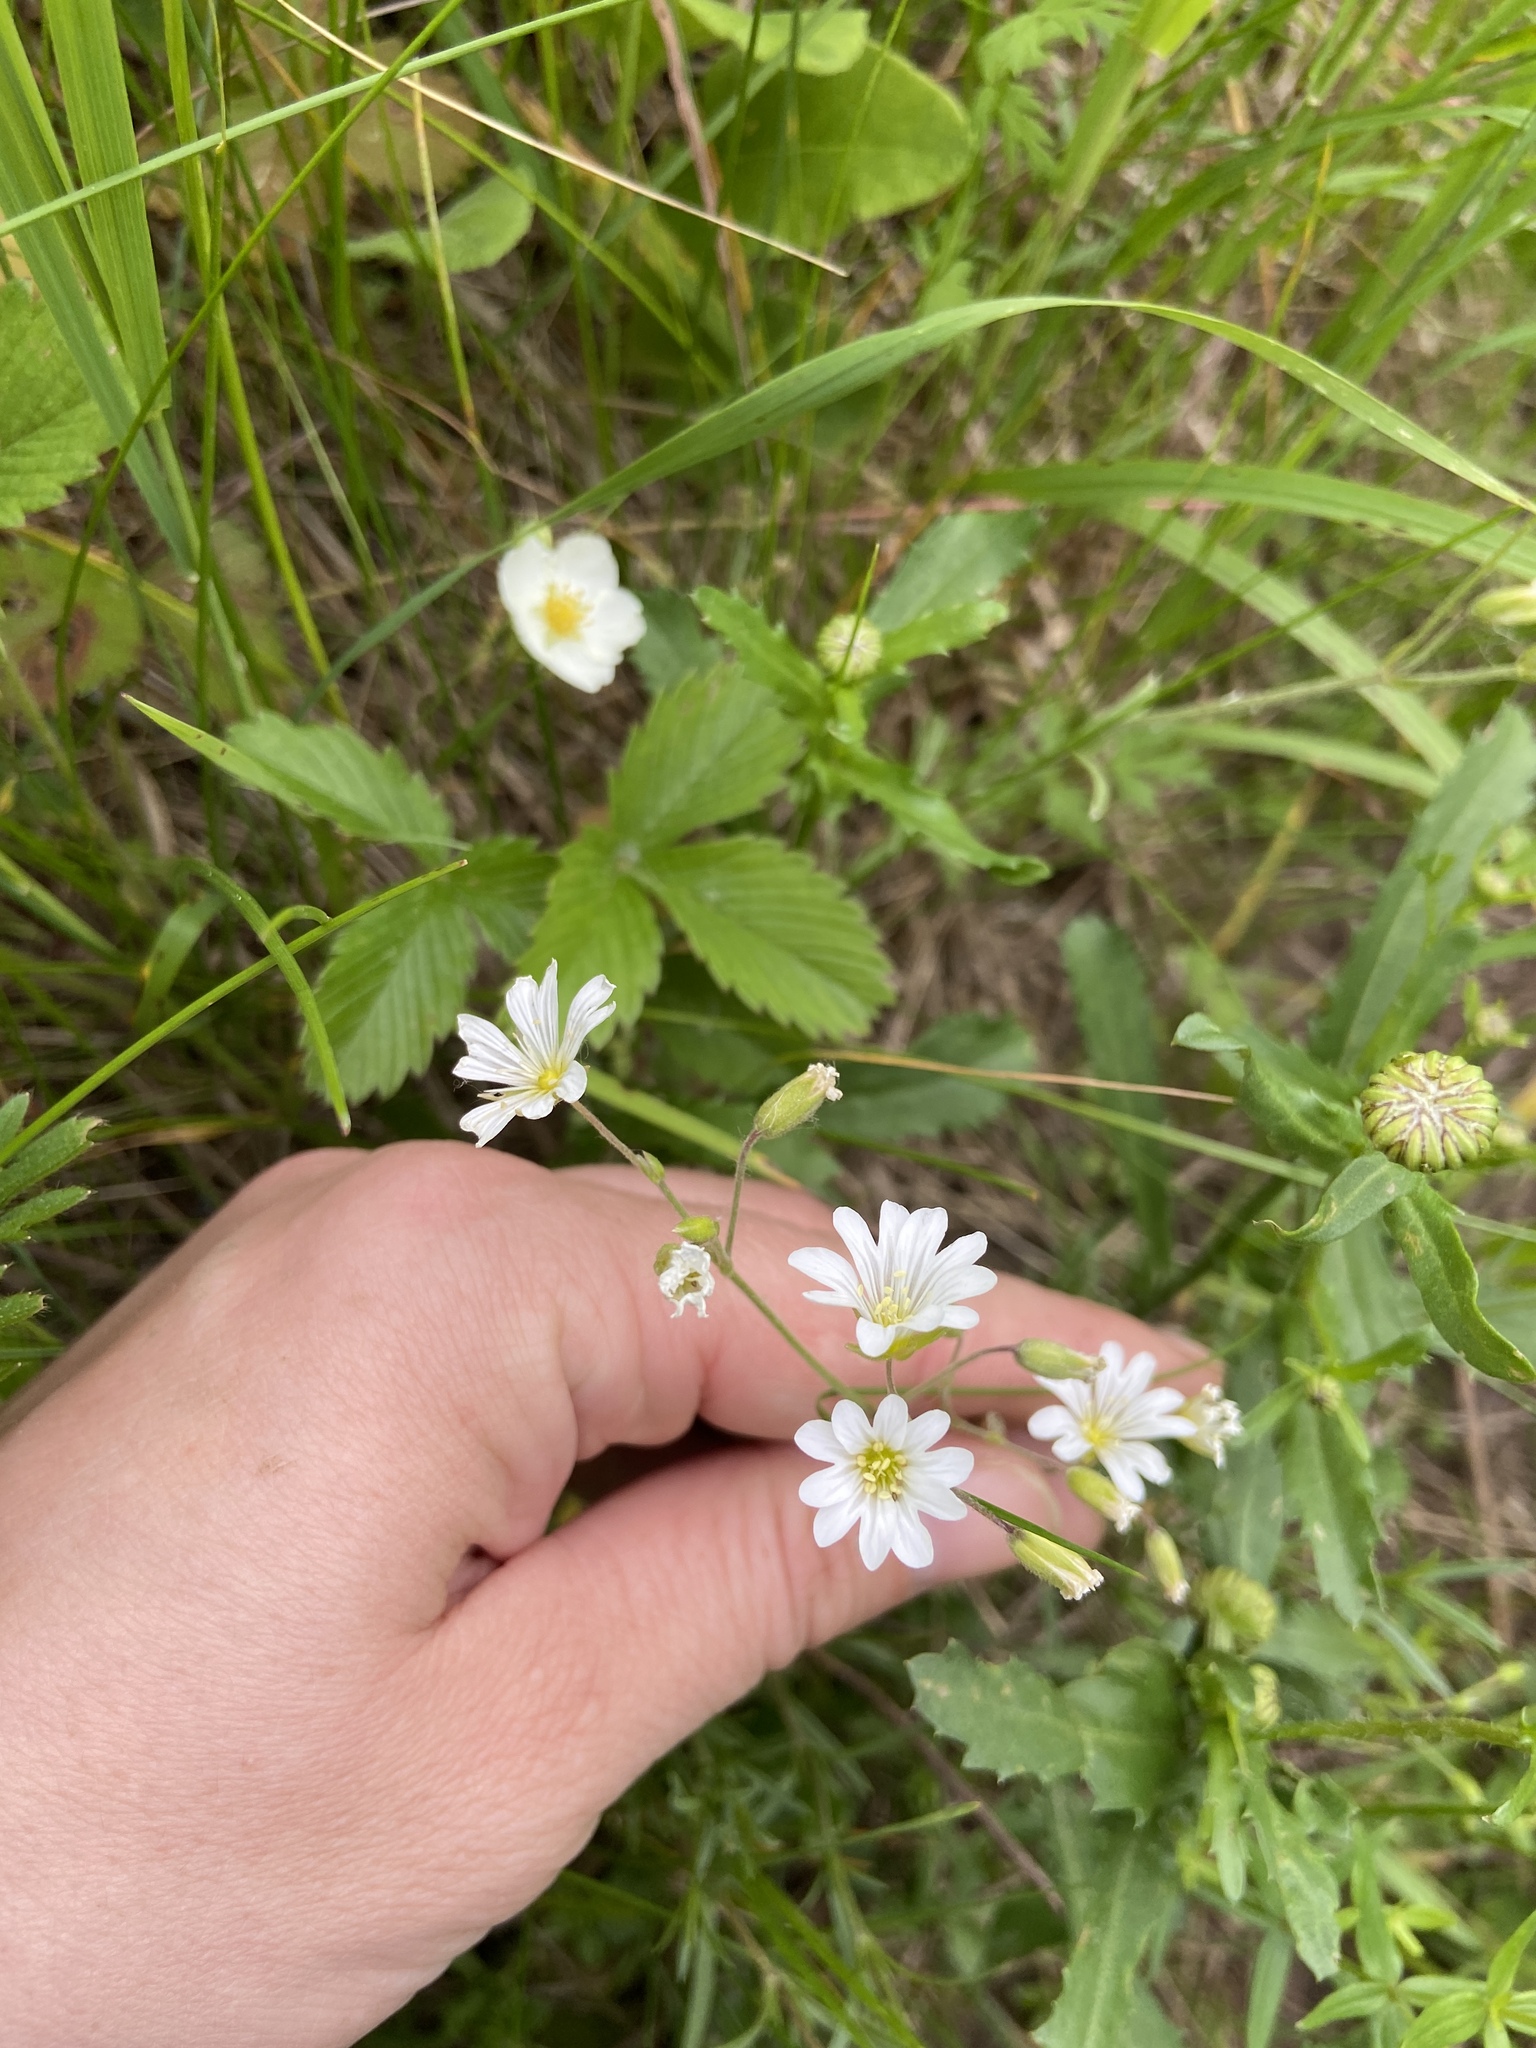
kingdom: Plantae
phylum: Tracheophyta
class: Magnoliopsida
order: Caryophyllales
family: Caryophyllaceae
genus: Cerastium
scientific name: Cerastium arvense
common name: Field mouse-ear
